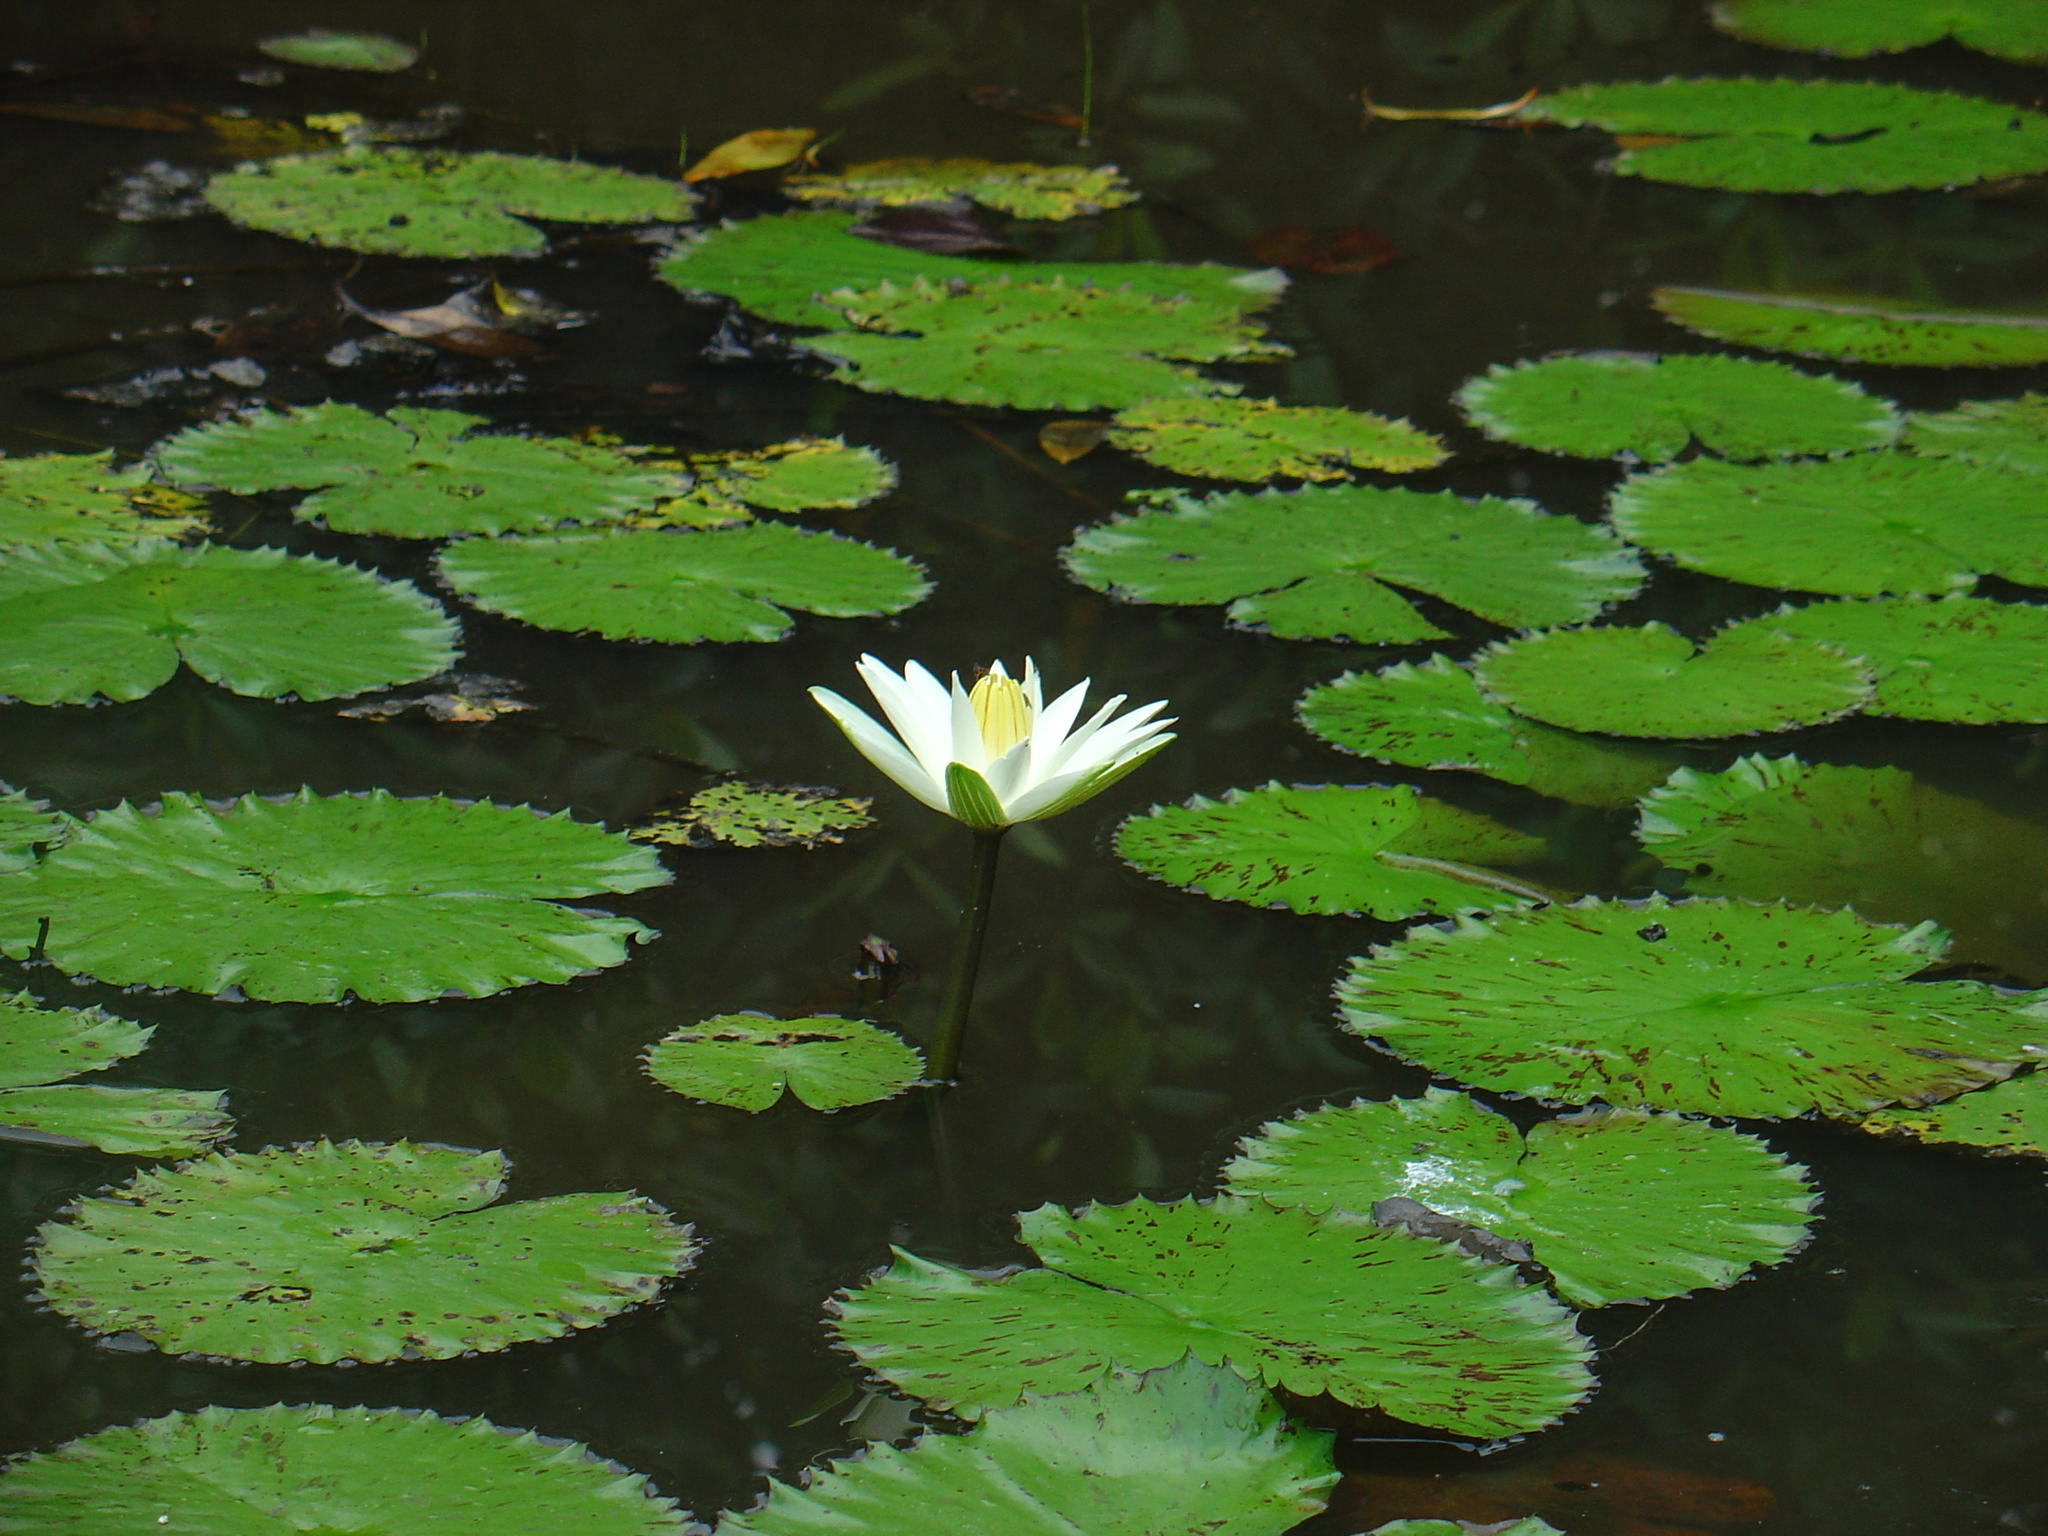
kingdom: Plantae
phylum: Tracheophyta
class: Magnoliopsida
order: Nymphaeales
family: Nymphaeaceae
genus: Nymphaea
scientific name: Nymphaea lotus
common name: White egyptian lotus
